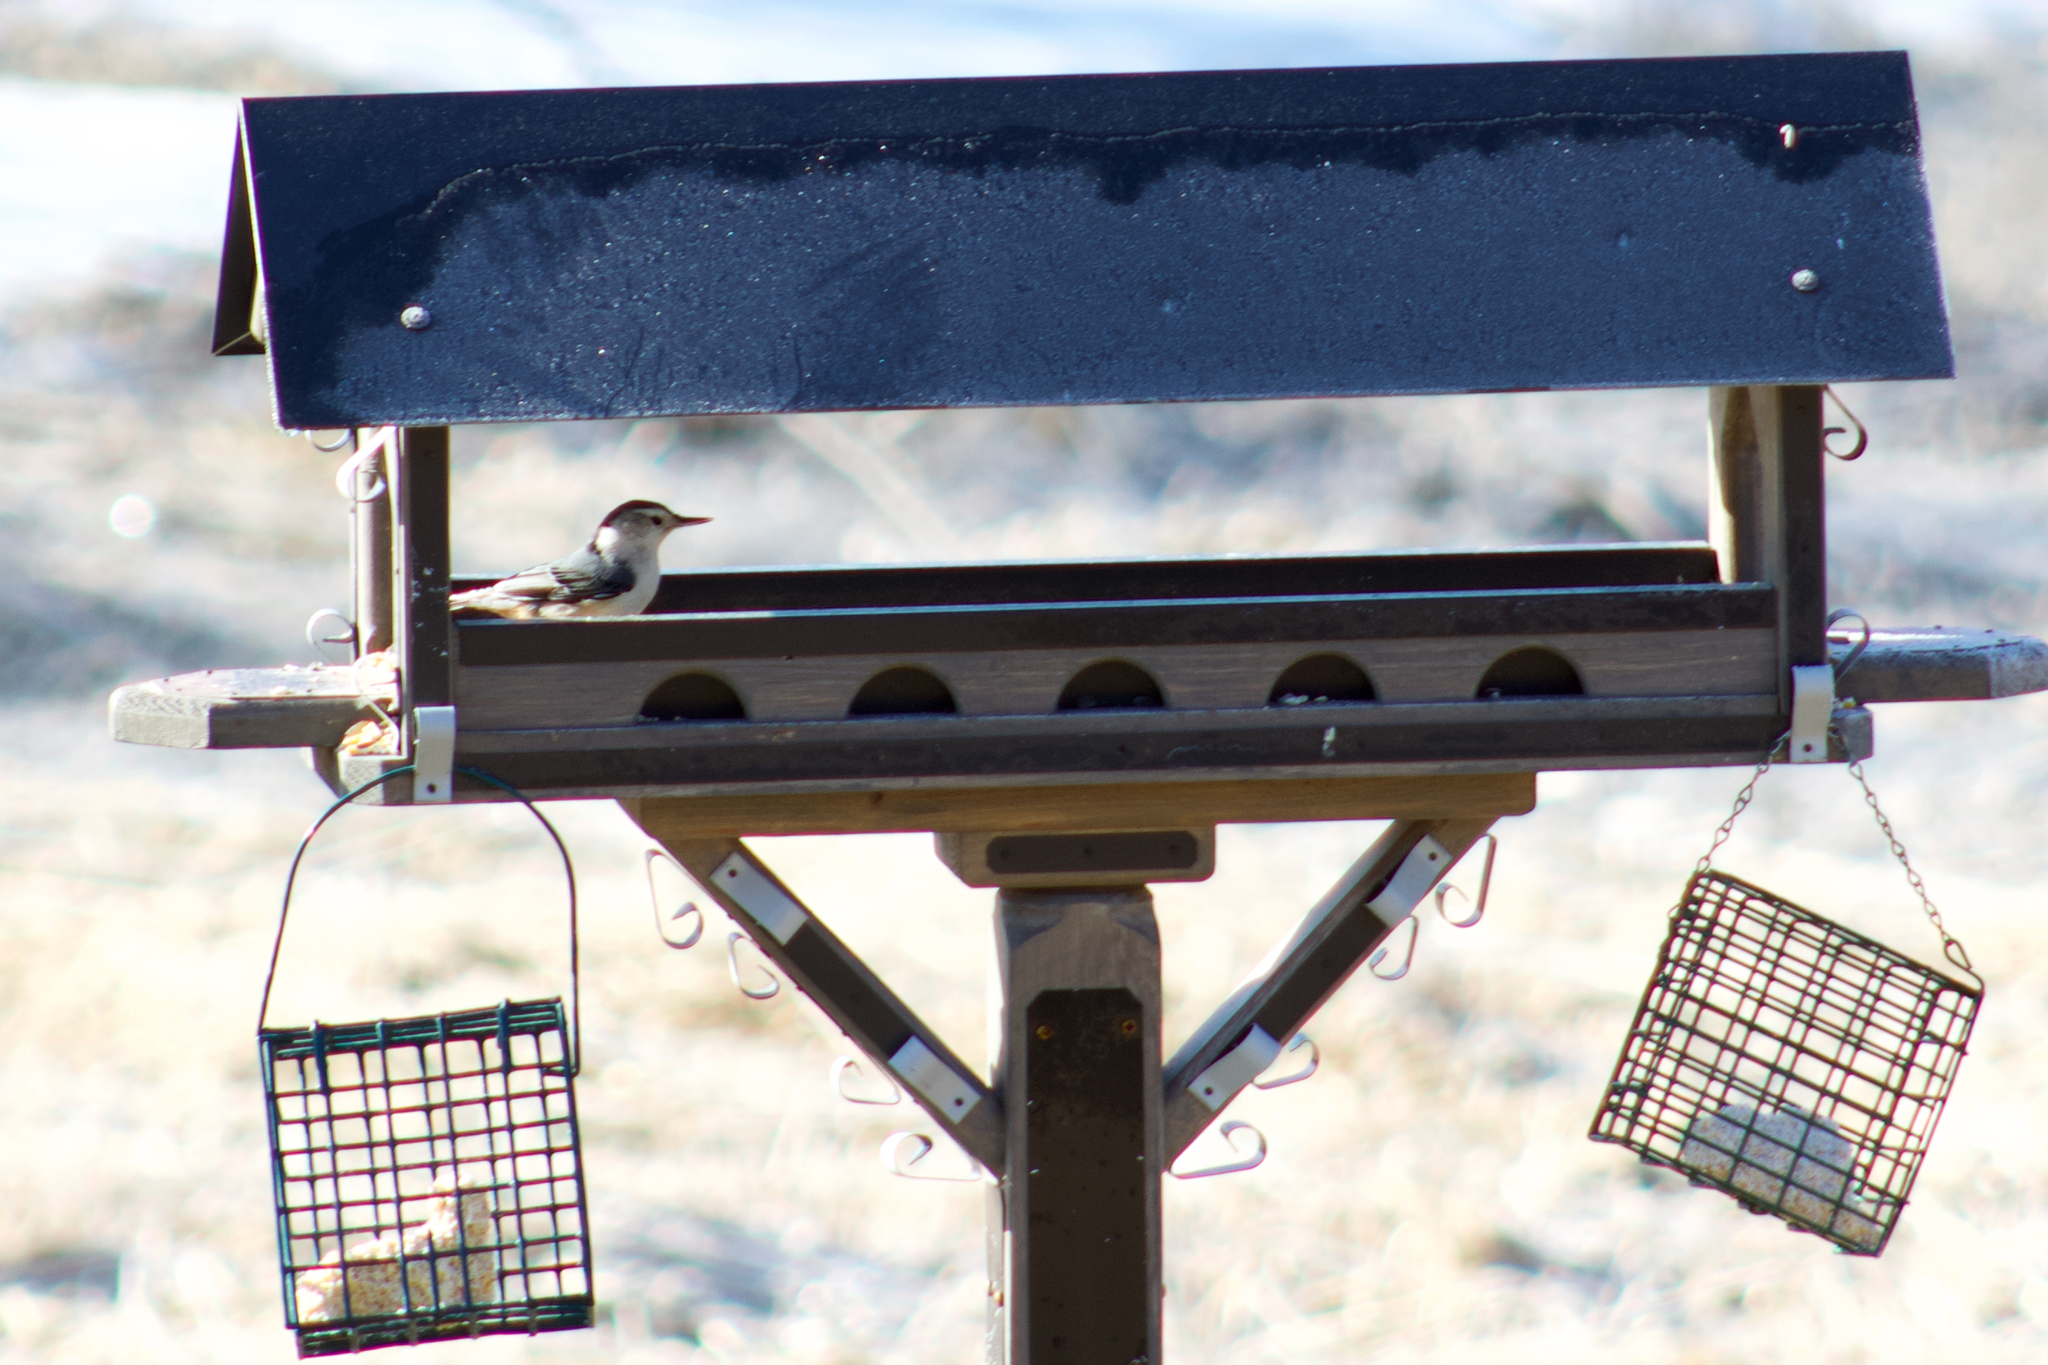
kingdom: Animalia
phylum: Chordata
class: Aves
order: Passeriformes
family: Sittidae
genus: Sitta
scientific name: Sitta carolinensis
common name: White-breasted nuthatch
